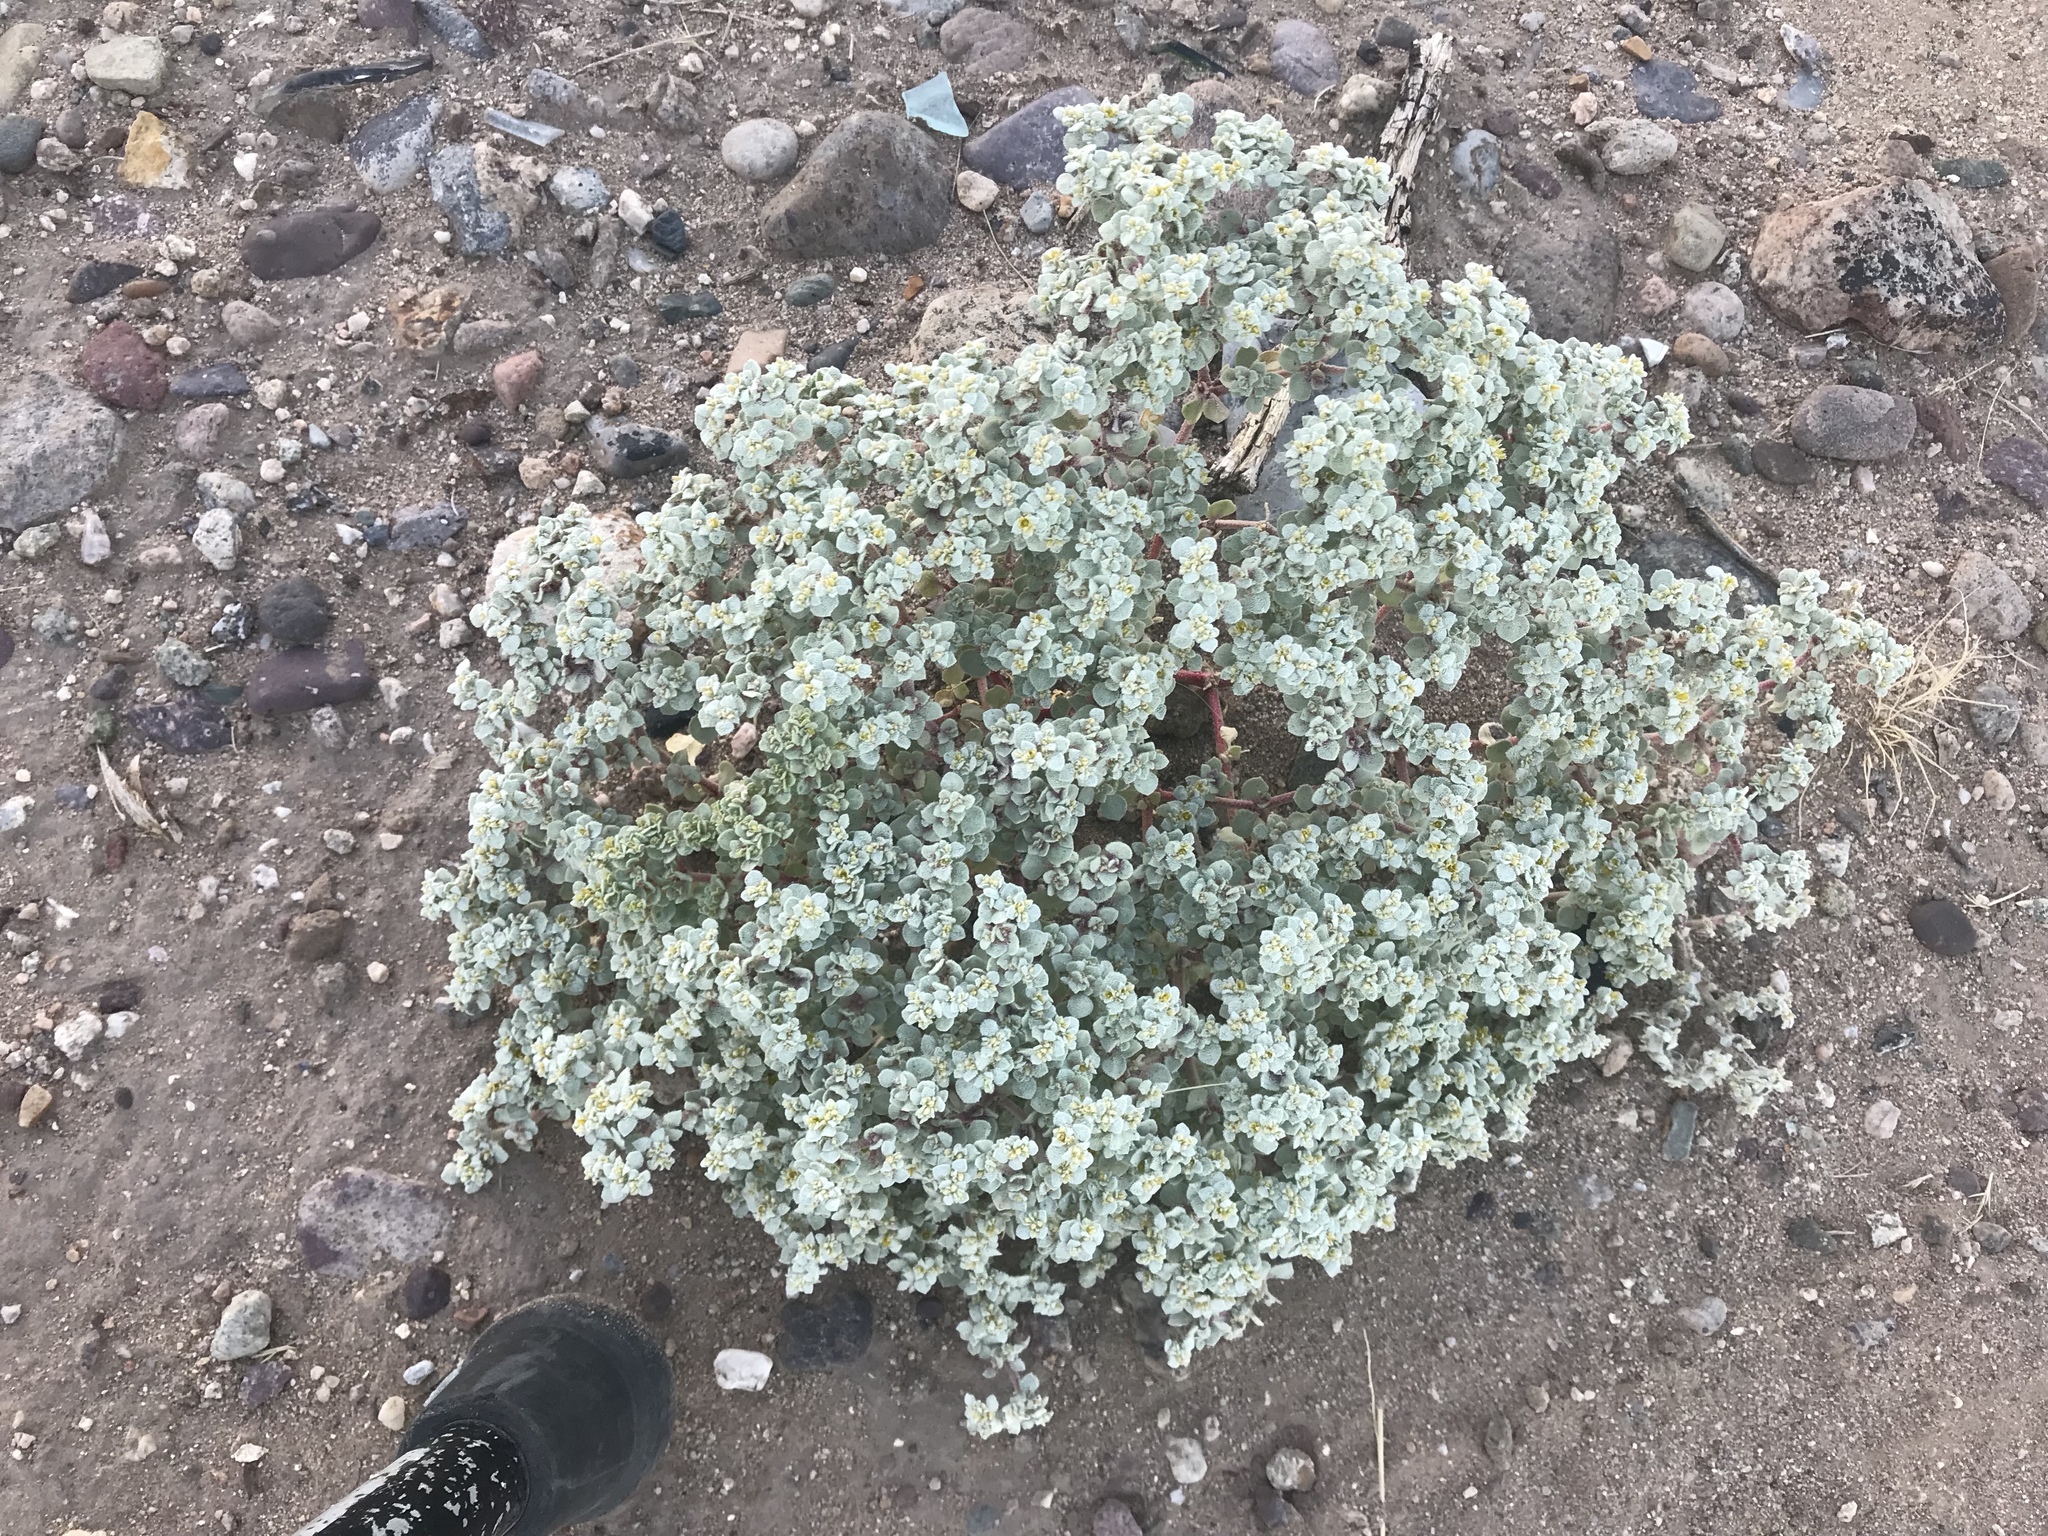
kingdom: Plantae
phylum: Tracheophyta
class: Magnoliopsida
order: Caryophyllales
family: Amaranthaceae
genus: Tidestromia
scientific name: Tidestromia lanuginosa
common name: Woolly tidestromia
